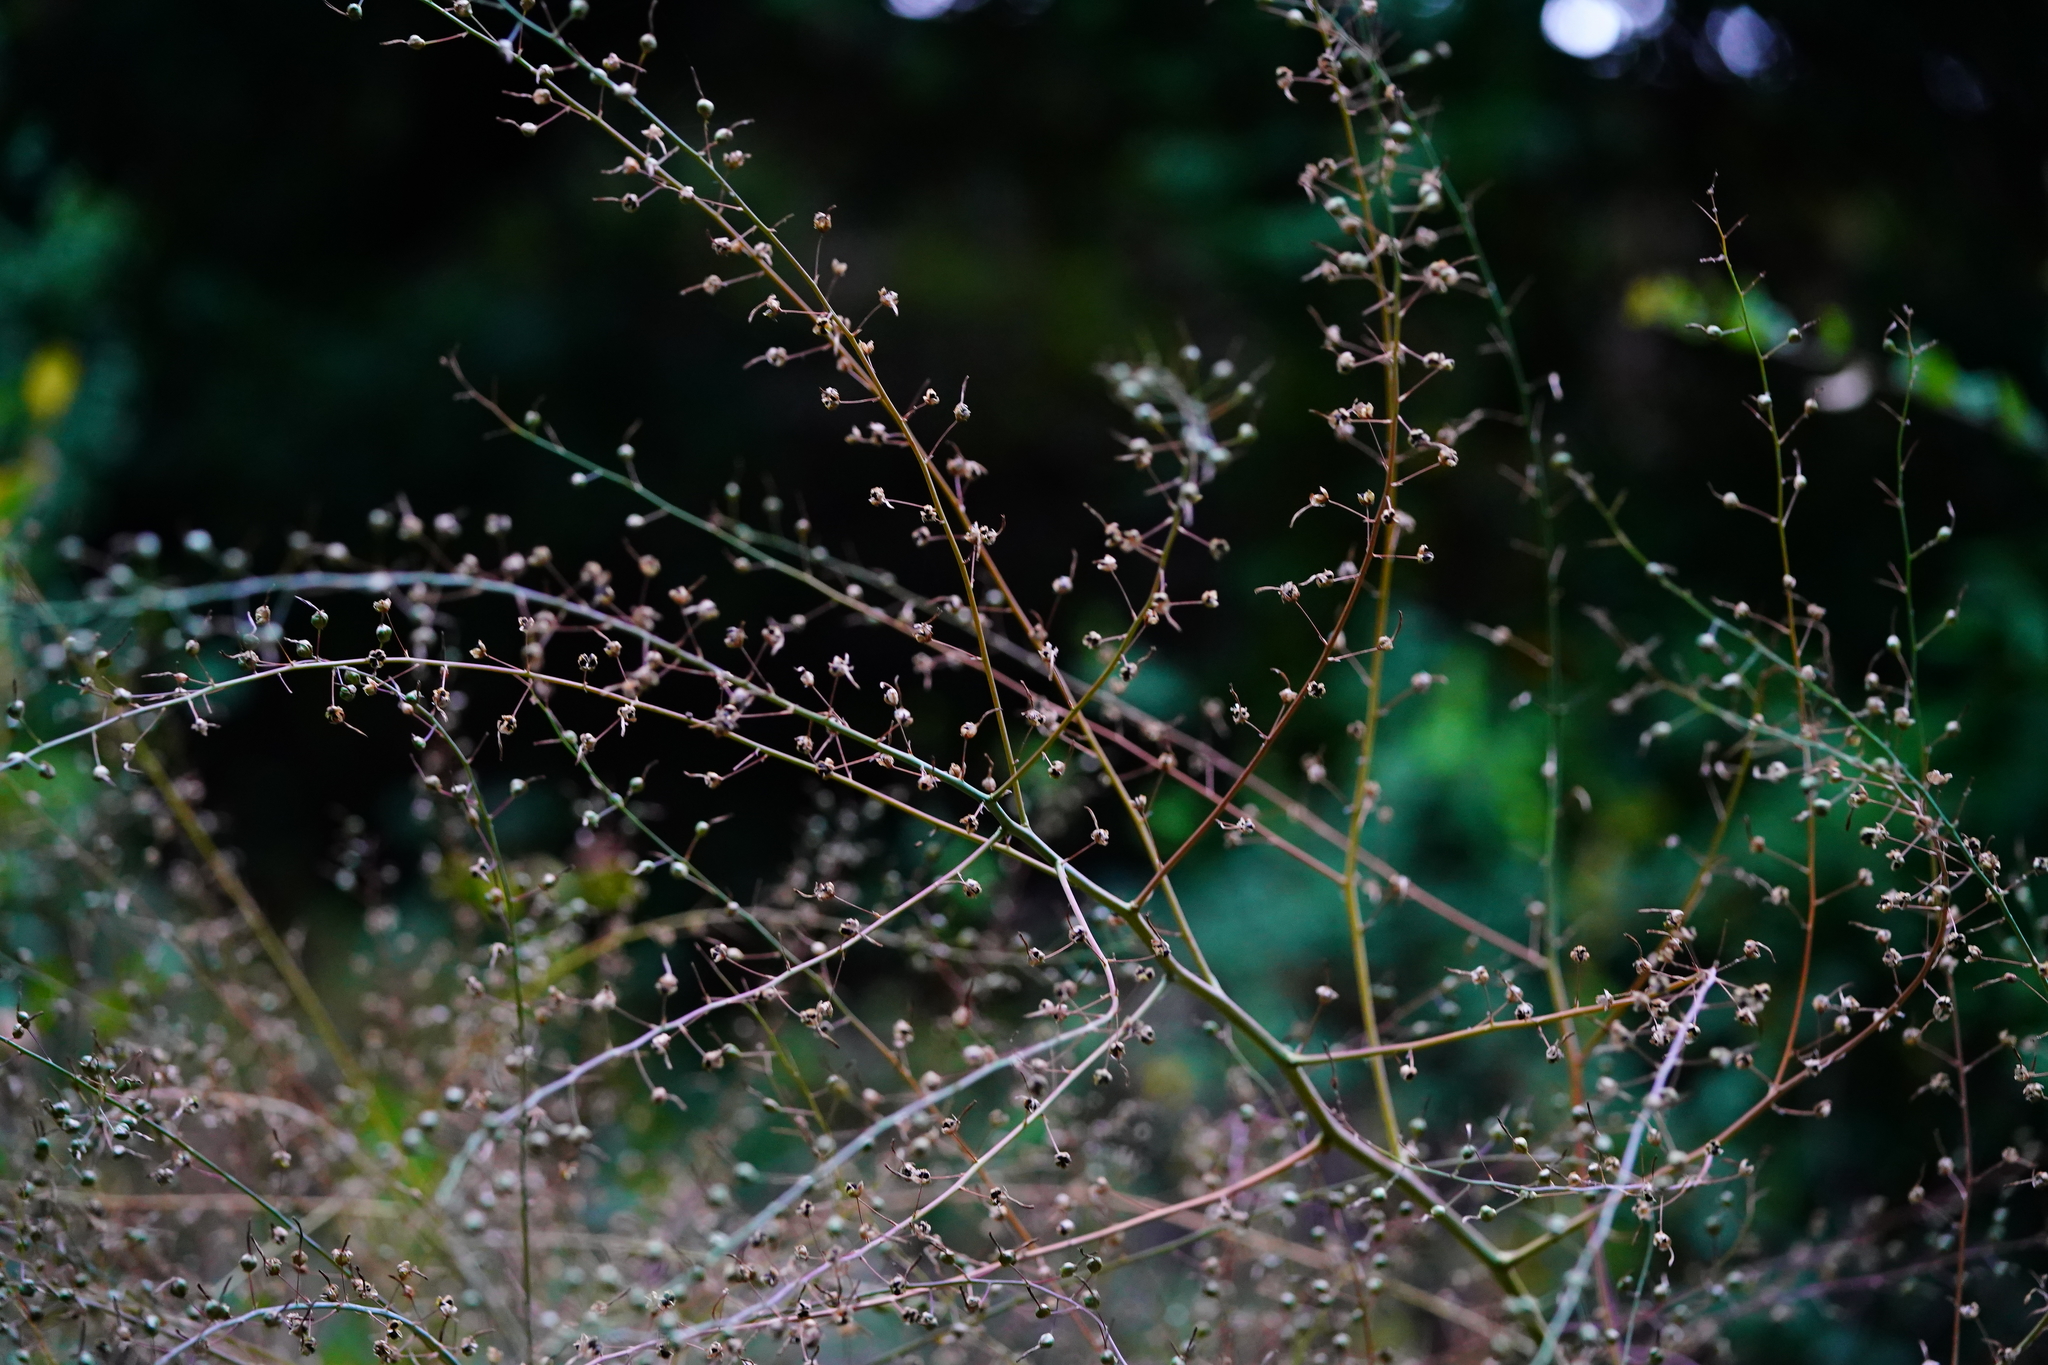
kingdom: Plantae
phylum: Tracheophyta
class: Liliopsida
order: Asparagales
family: Asparagaceae
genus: Chlorogalum
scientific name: Chlorogalum pomeridianum
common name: Amole
